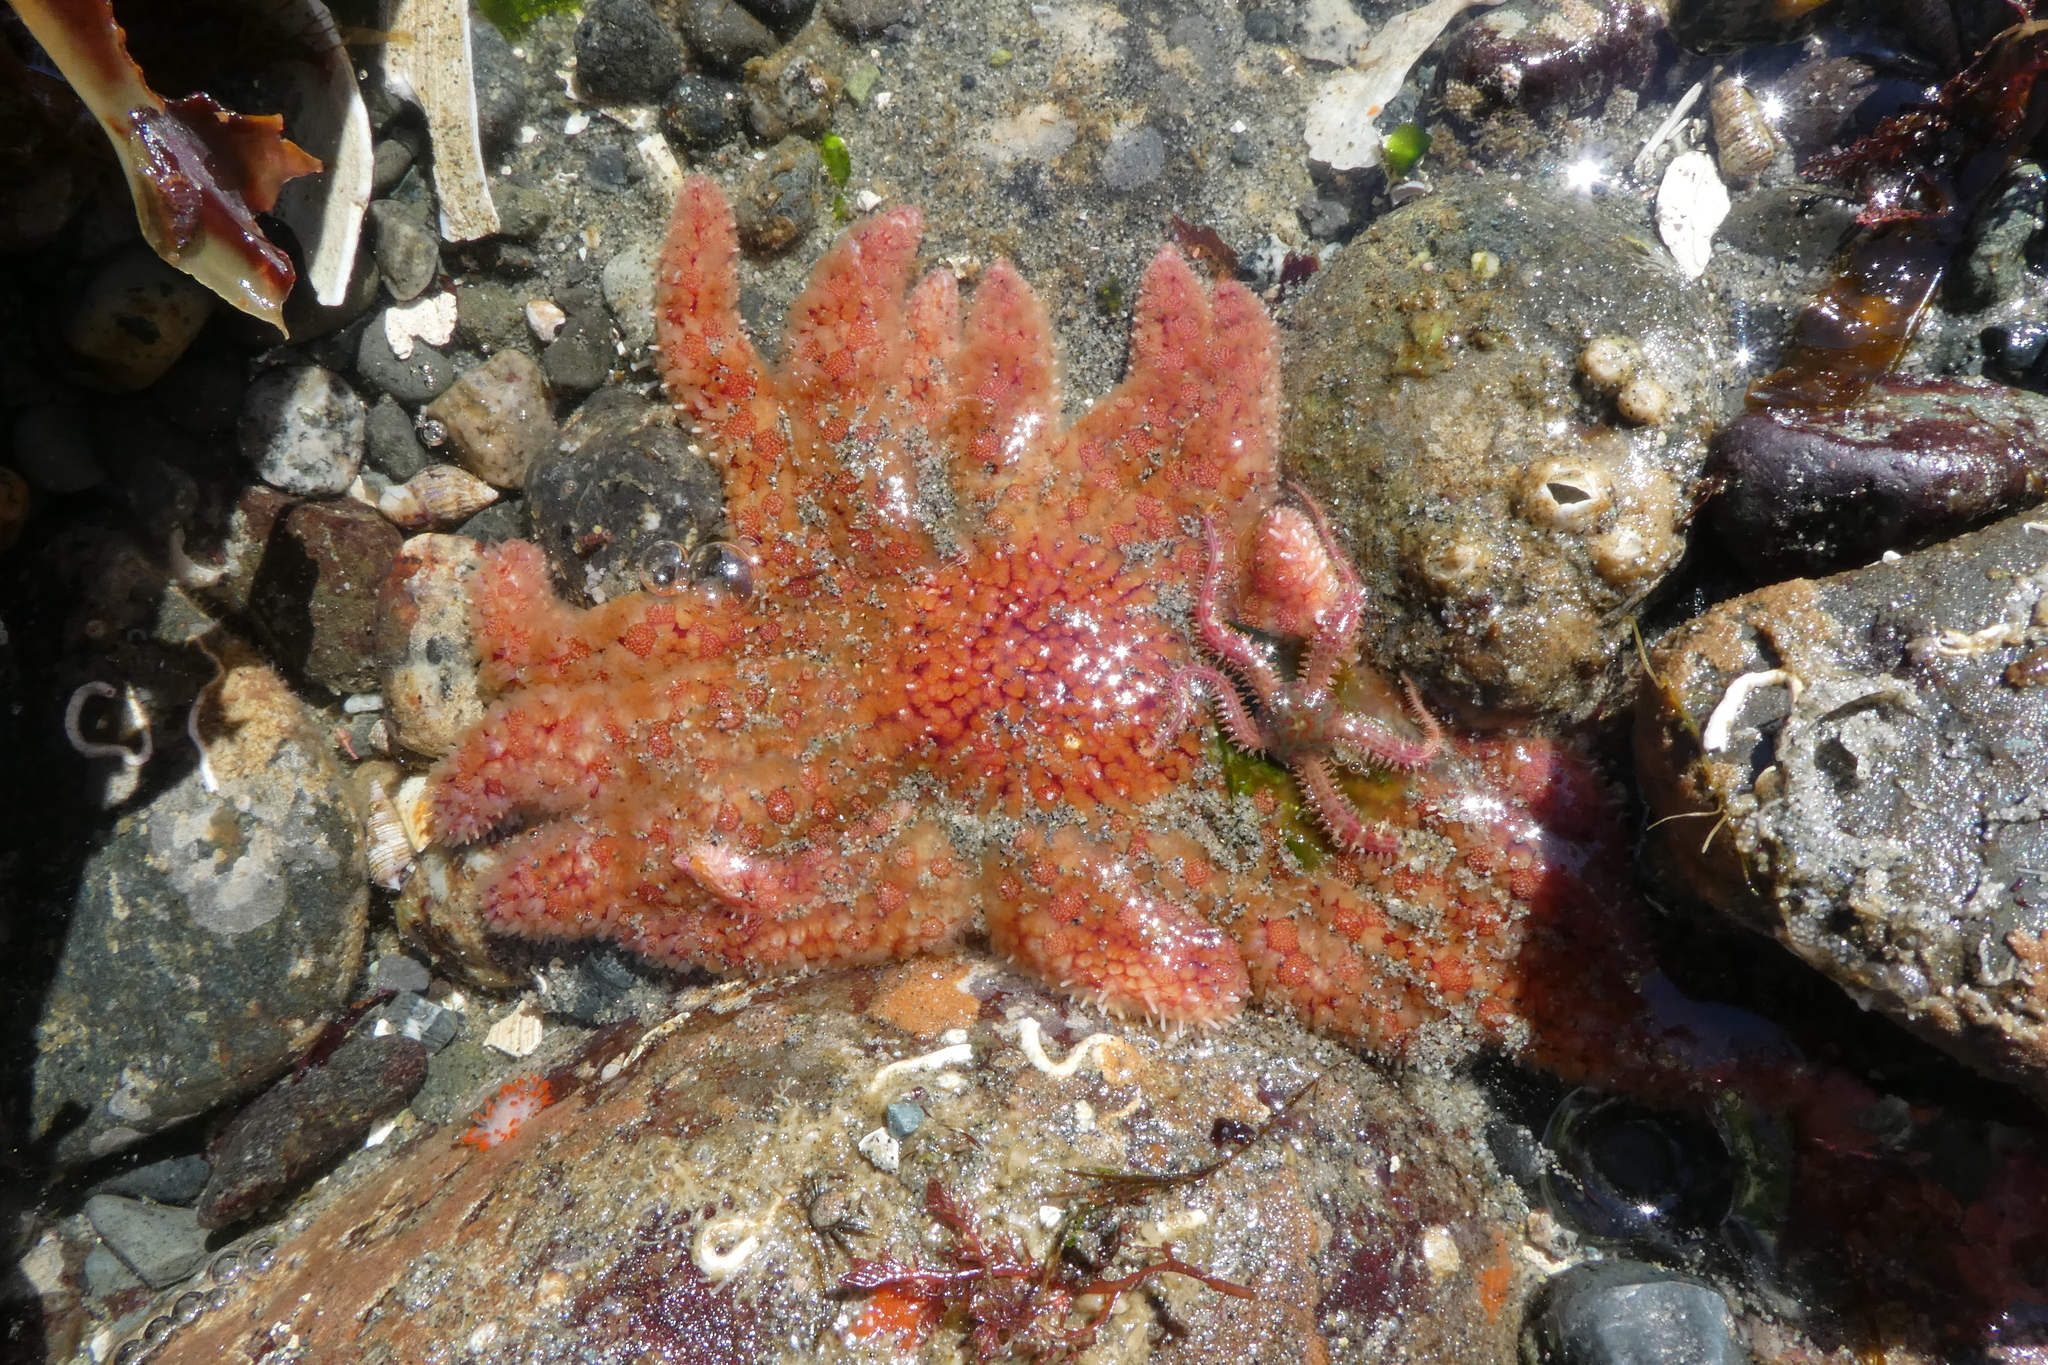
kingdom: Animalia
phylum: Echinodermata
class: Asteroidea
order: Forcipulatida
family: Asteriidae
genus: Pycnopodia
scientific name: Pycnopodia helianthoides
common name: Rag mop
